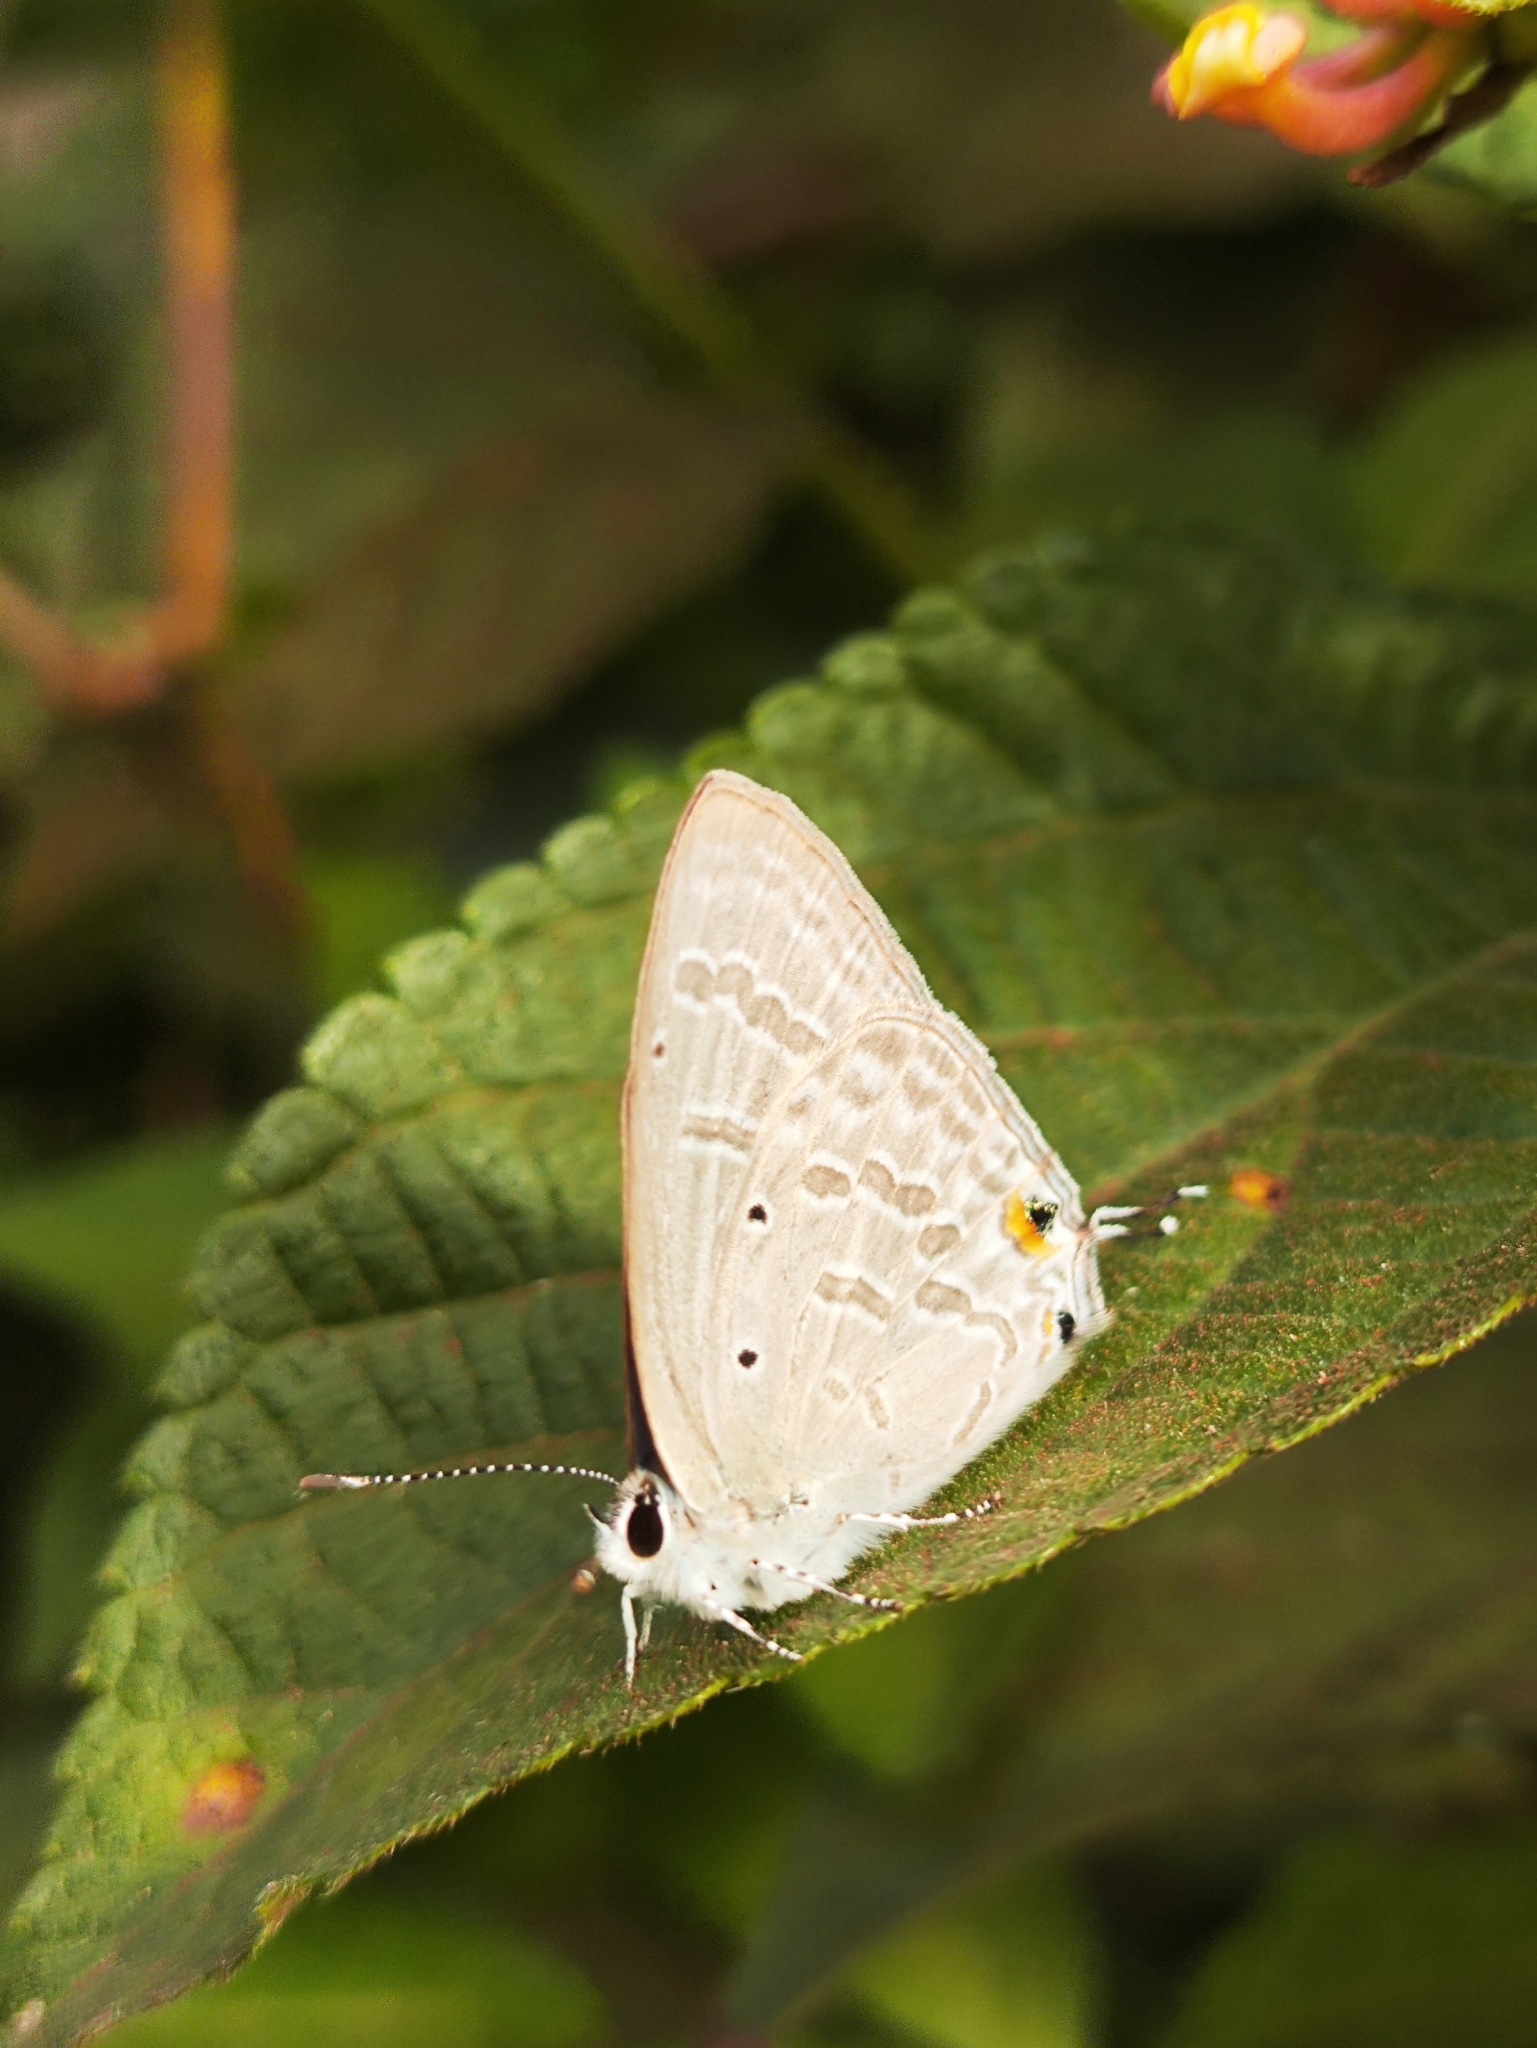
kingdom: Animalia
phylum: Arthropoda
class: Insecta
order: Lepidoptera
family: Lycaenidae
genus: Catochrysops
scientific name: Catochrysops strabo
